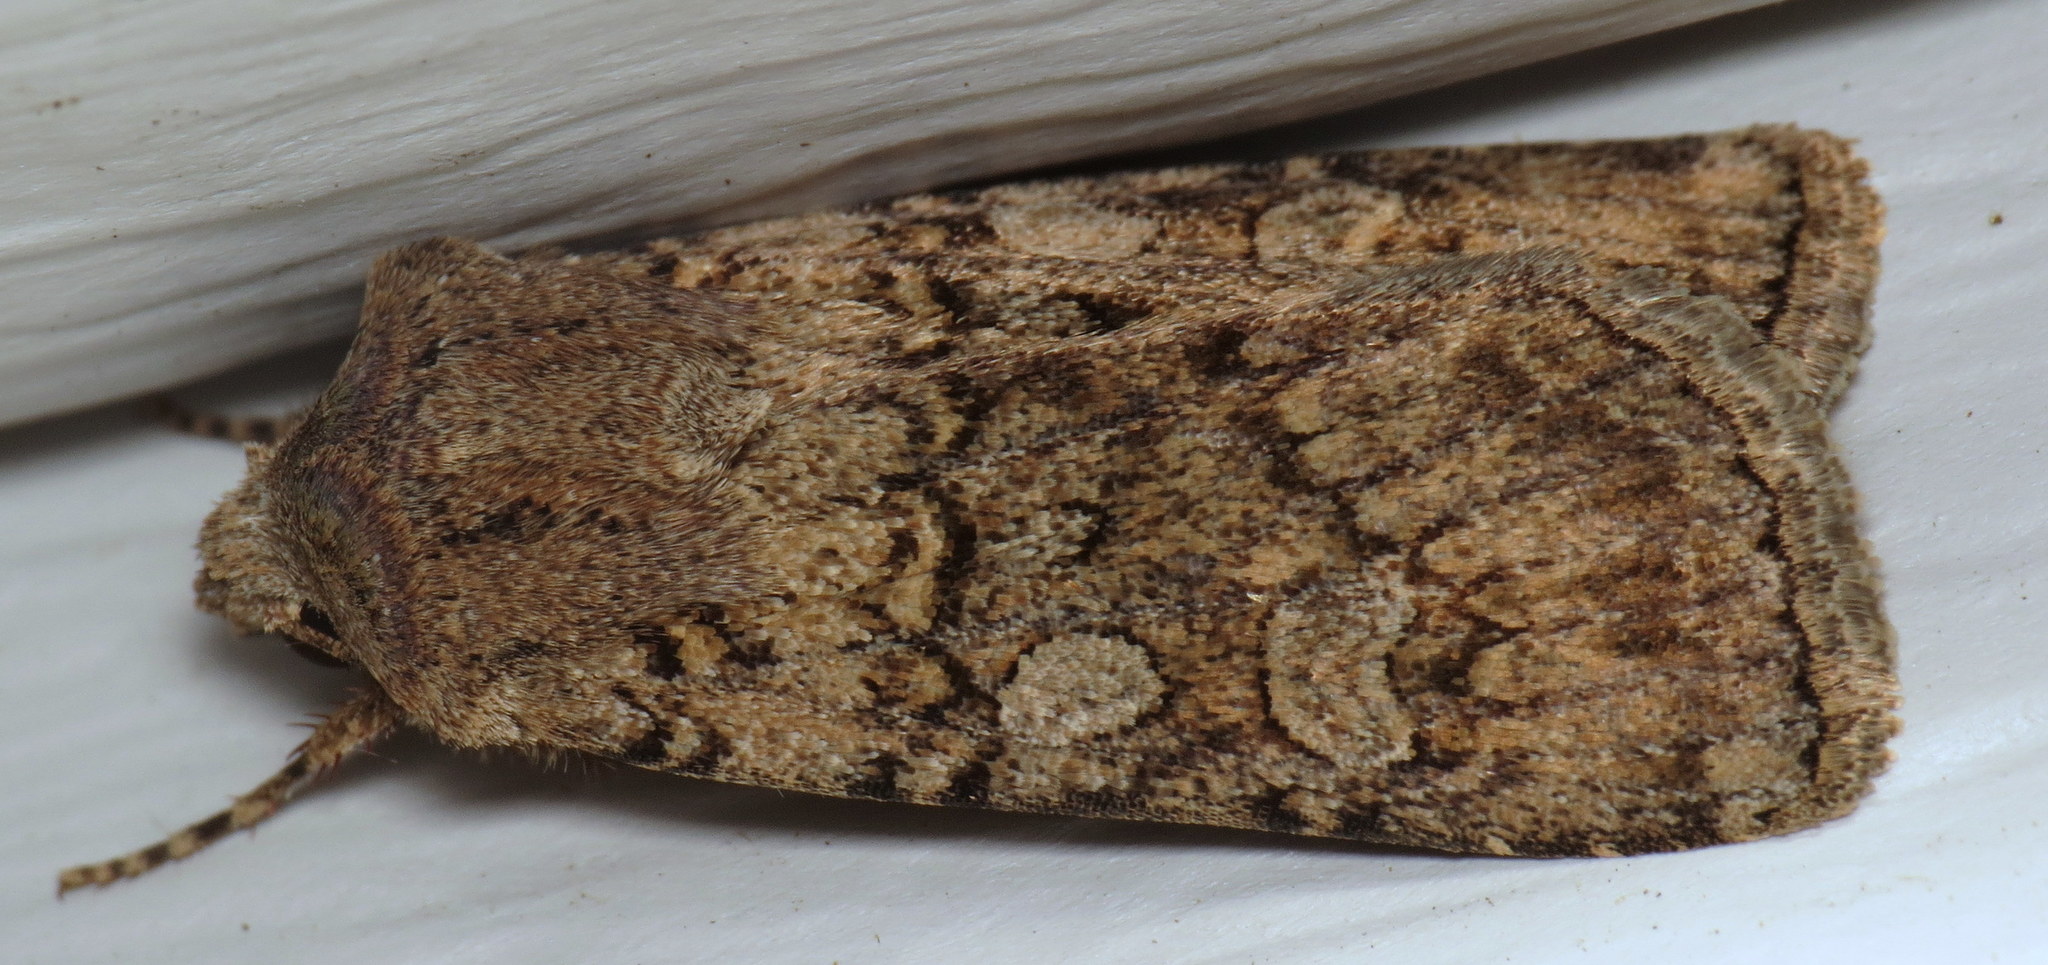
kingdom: Animalia
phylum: Arthropoda
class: Insecta
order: Lepidoptera
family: Noctuidae
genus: Euxoa
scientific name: Euxoa messoria
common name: Darksided cutworm
